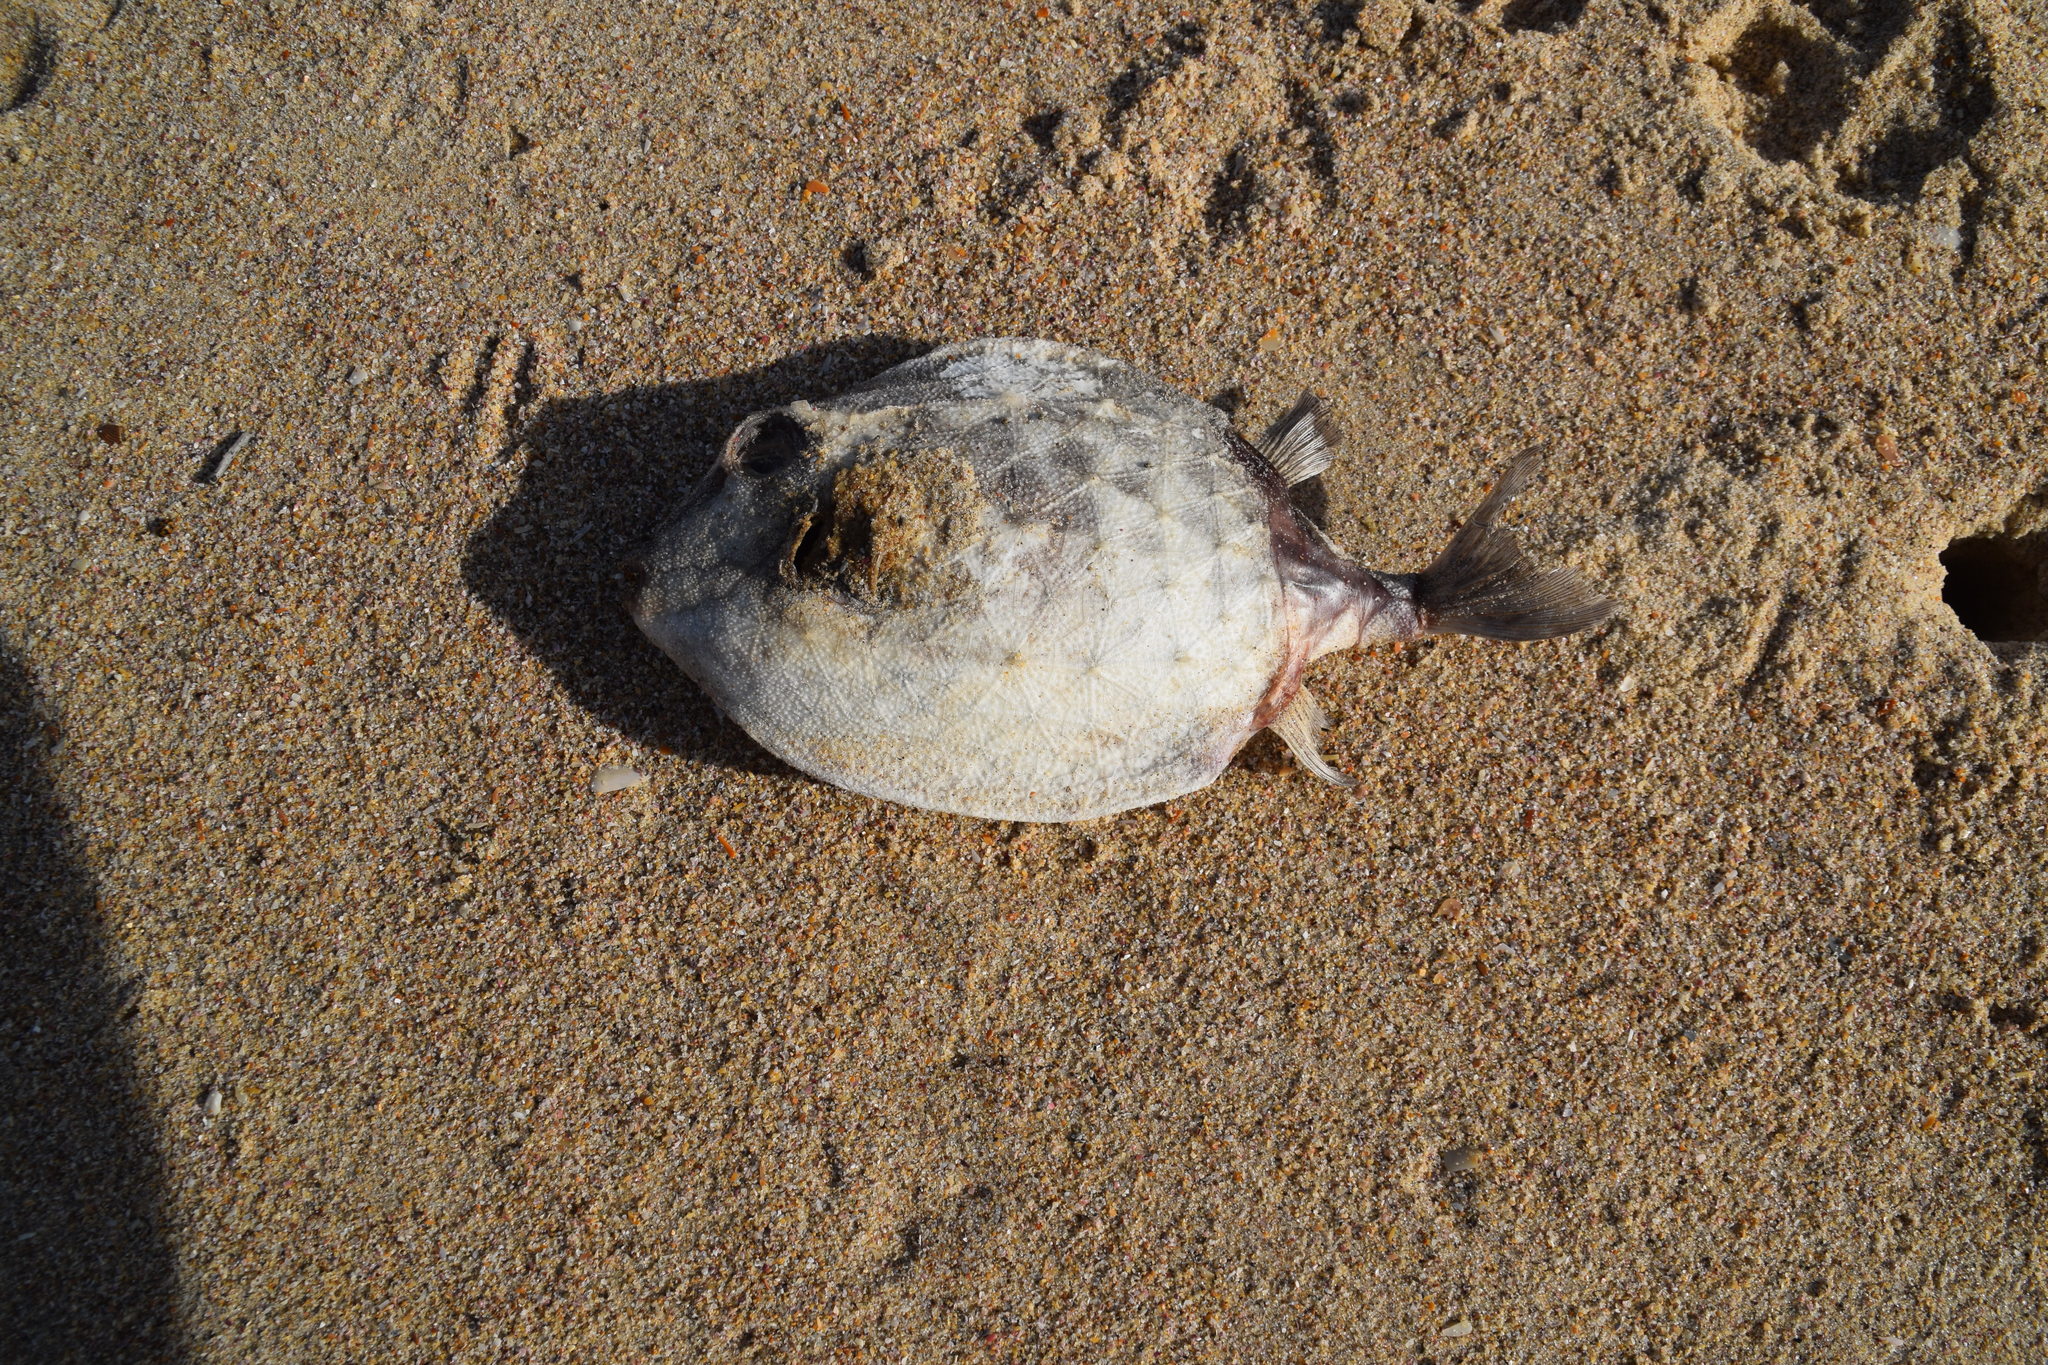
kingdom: Animalia
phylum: Chordata
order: Tetraodontiformes
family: Aracanidae
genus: Anoplocapros
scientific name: Anoplocapros inermis
